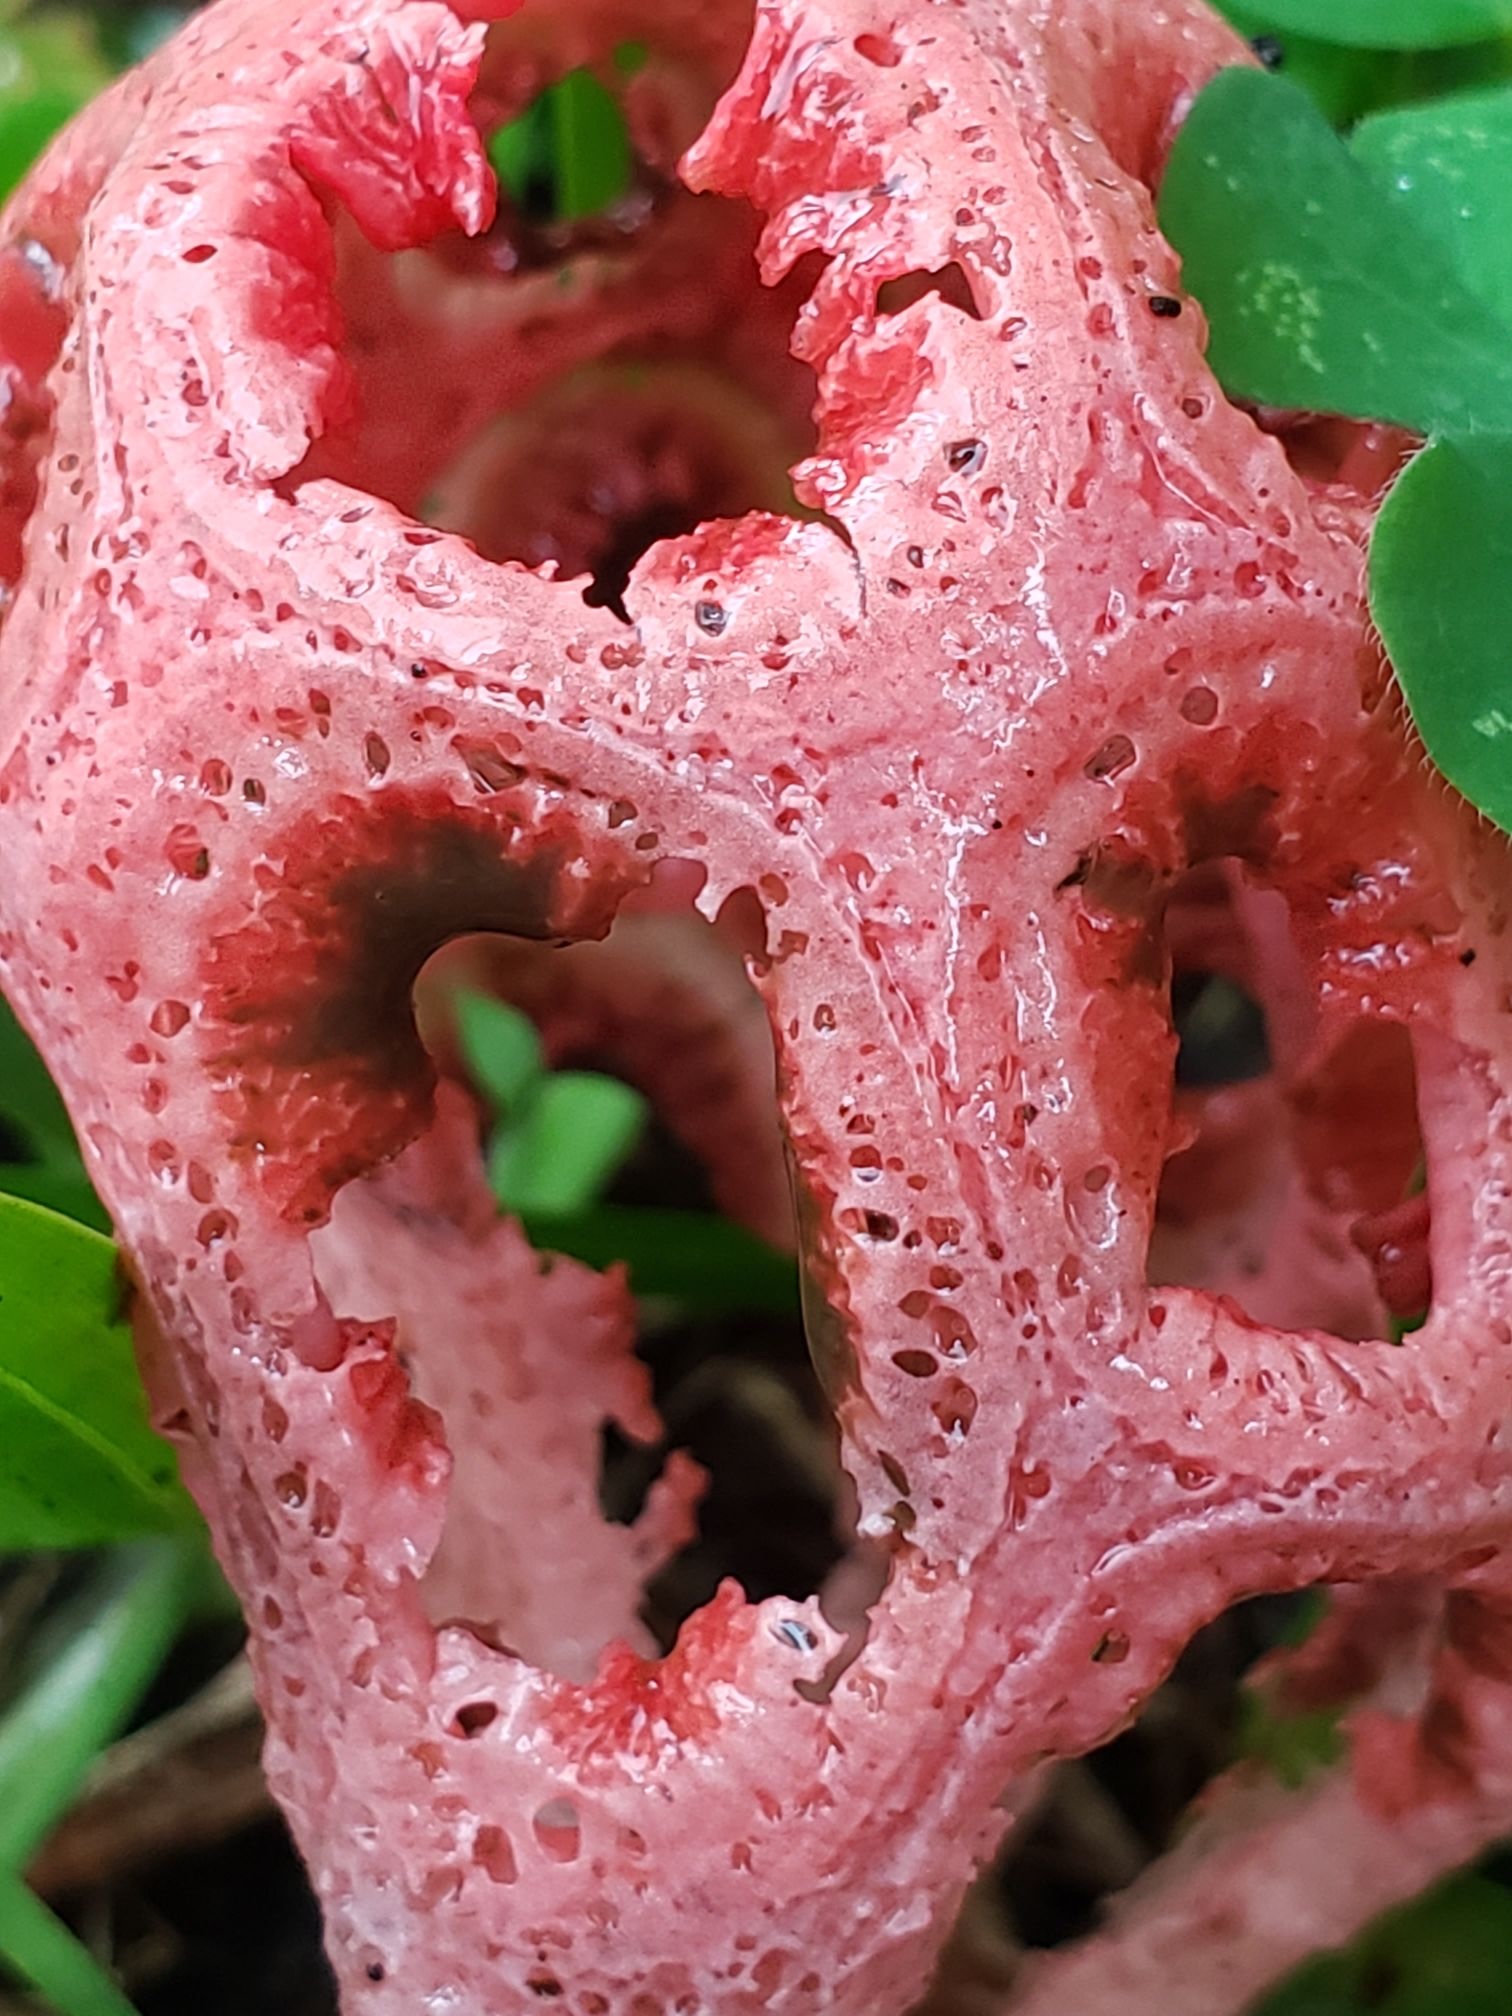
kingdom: Fungi
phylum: Basidiomycota
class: Agaricomycetes
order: Phallales
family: Phallaceae
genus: Clathrus
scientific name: Clathrus crispatus
